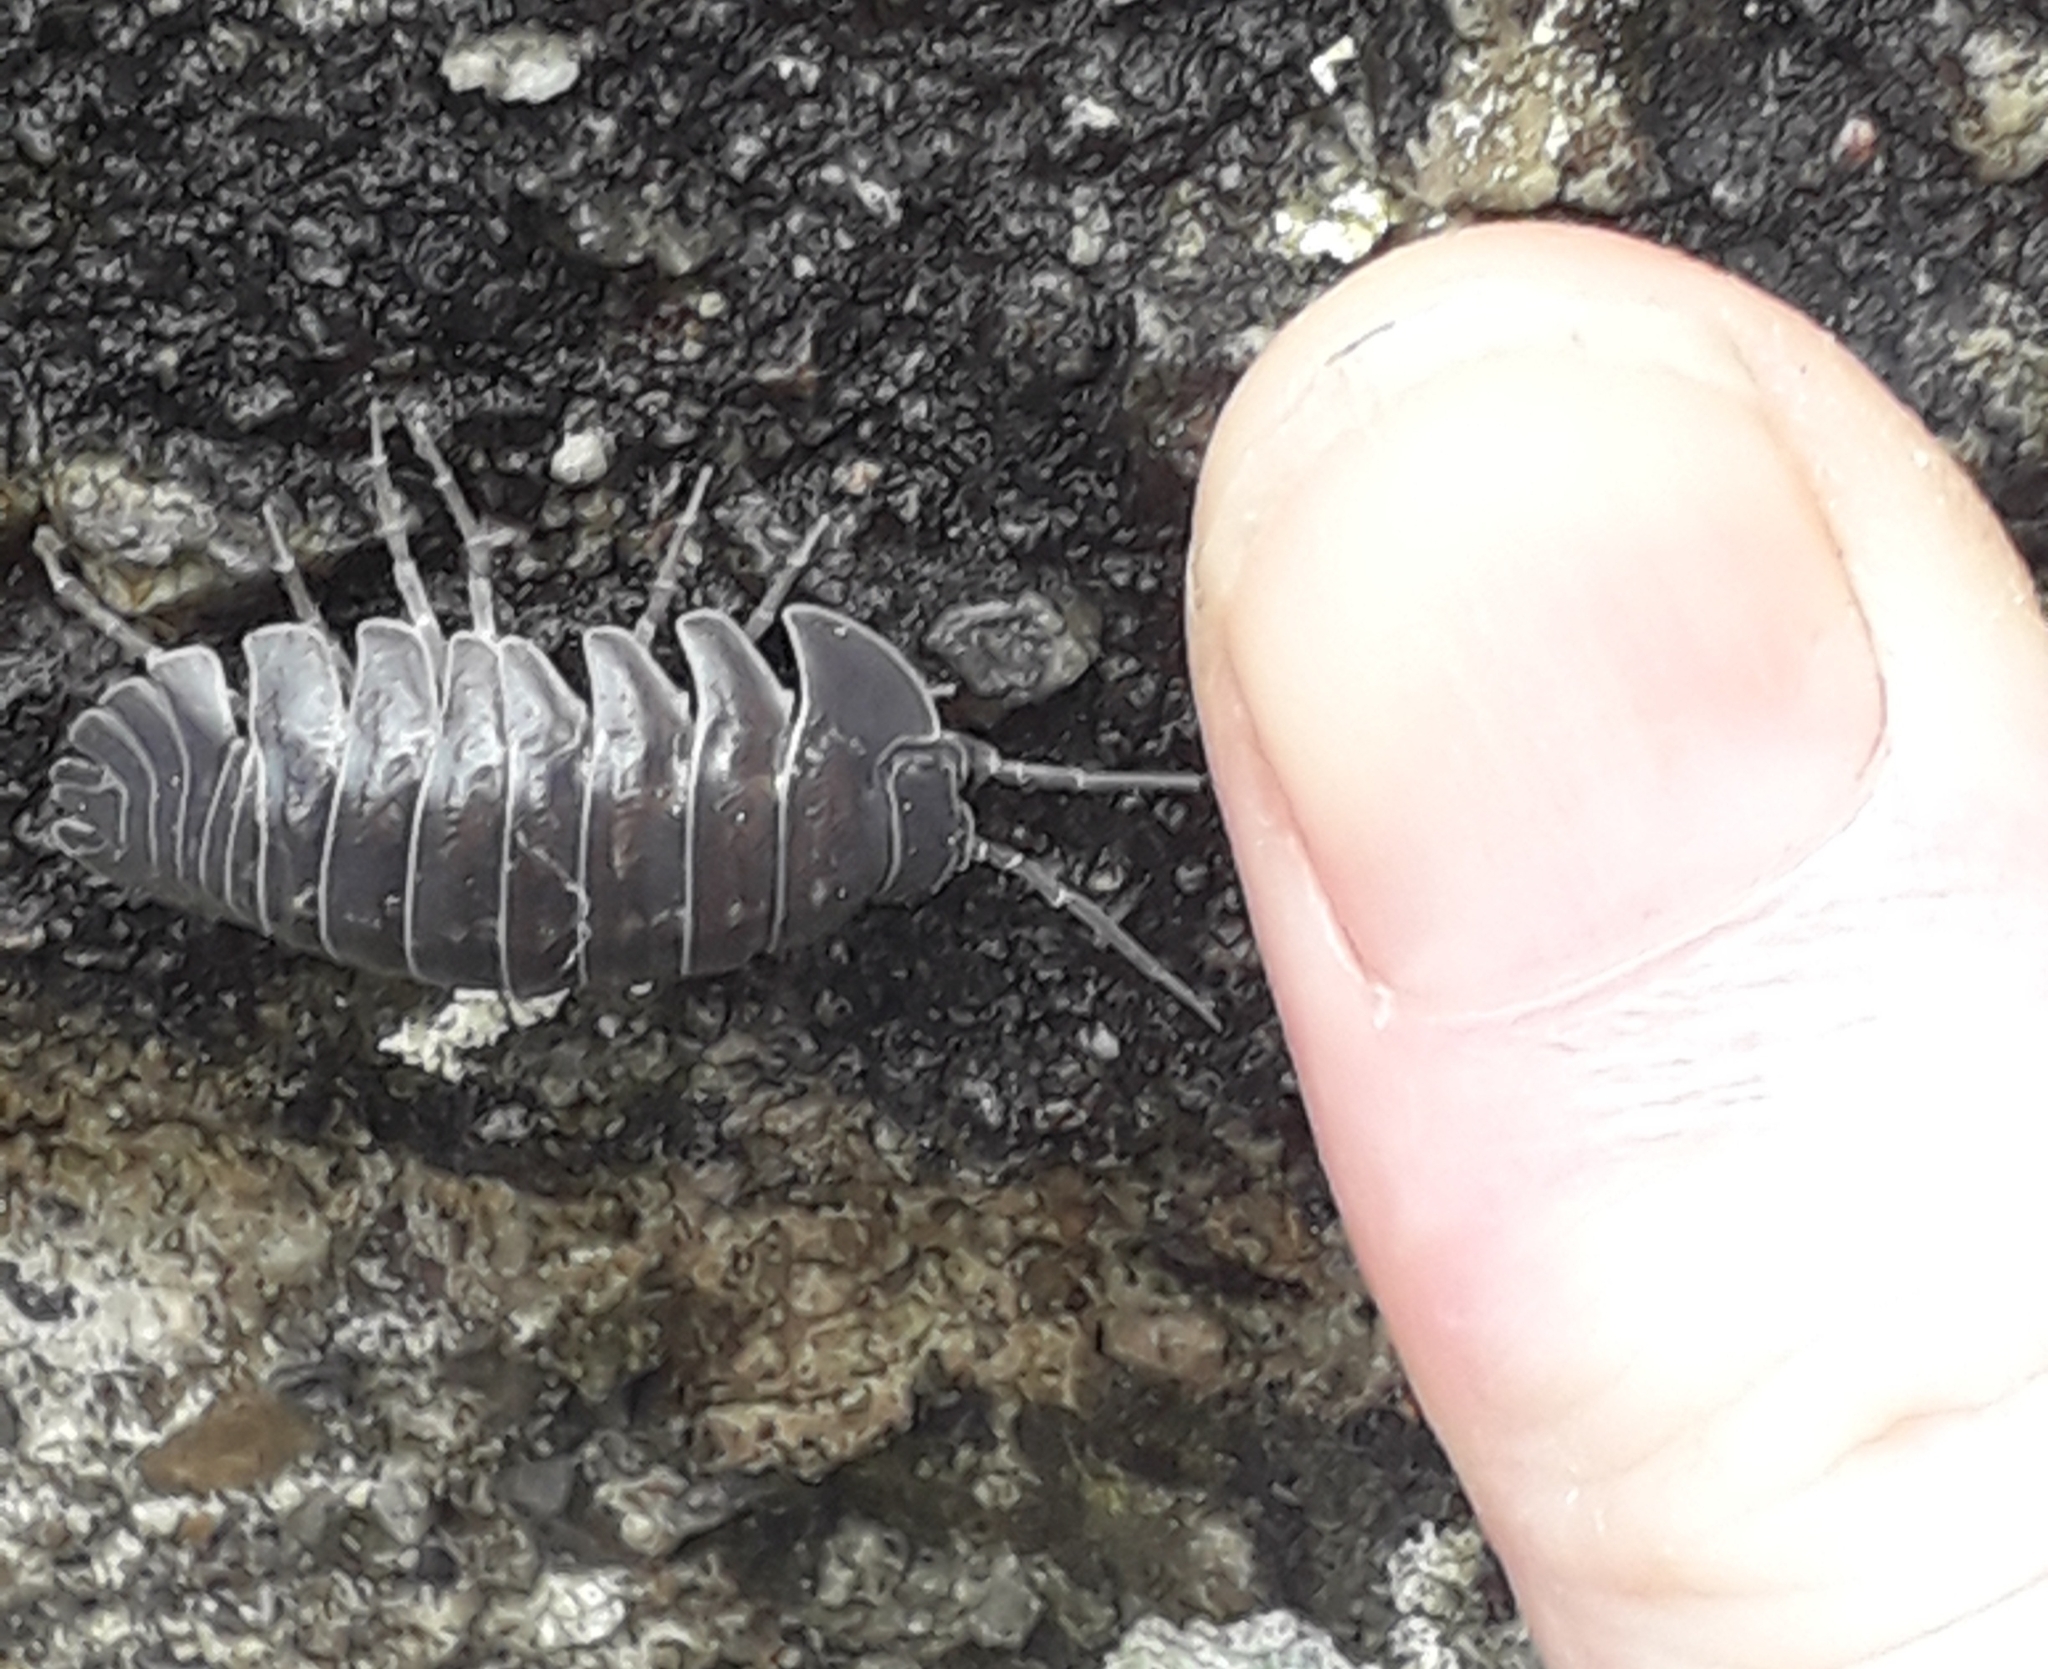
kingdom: Animalia
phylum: Arthropoda
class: Malacostraca
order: Isopoda
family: Armadillidiidae
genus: Armadillidium
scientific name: Armadillidium depressum
